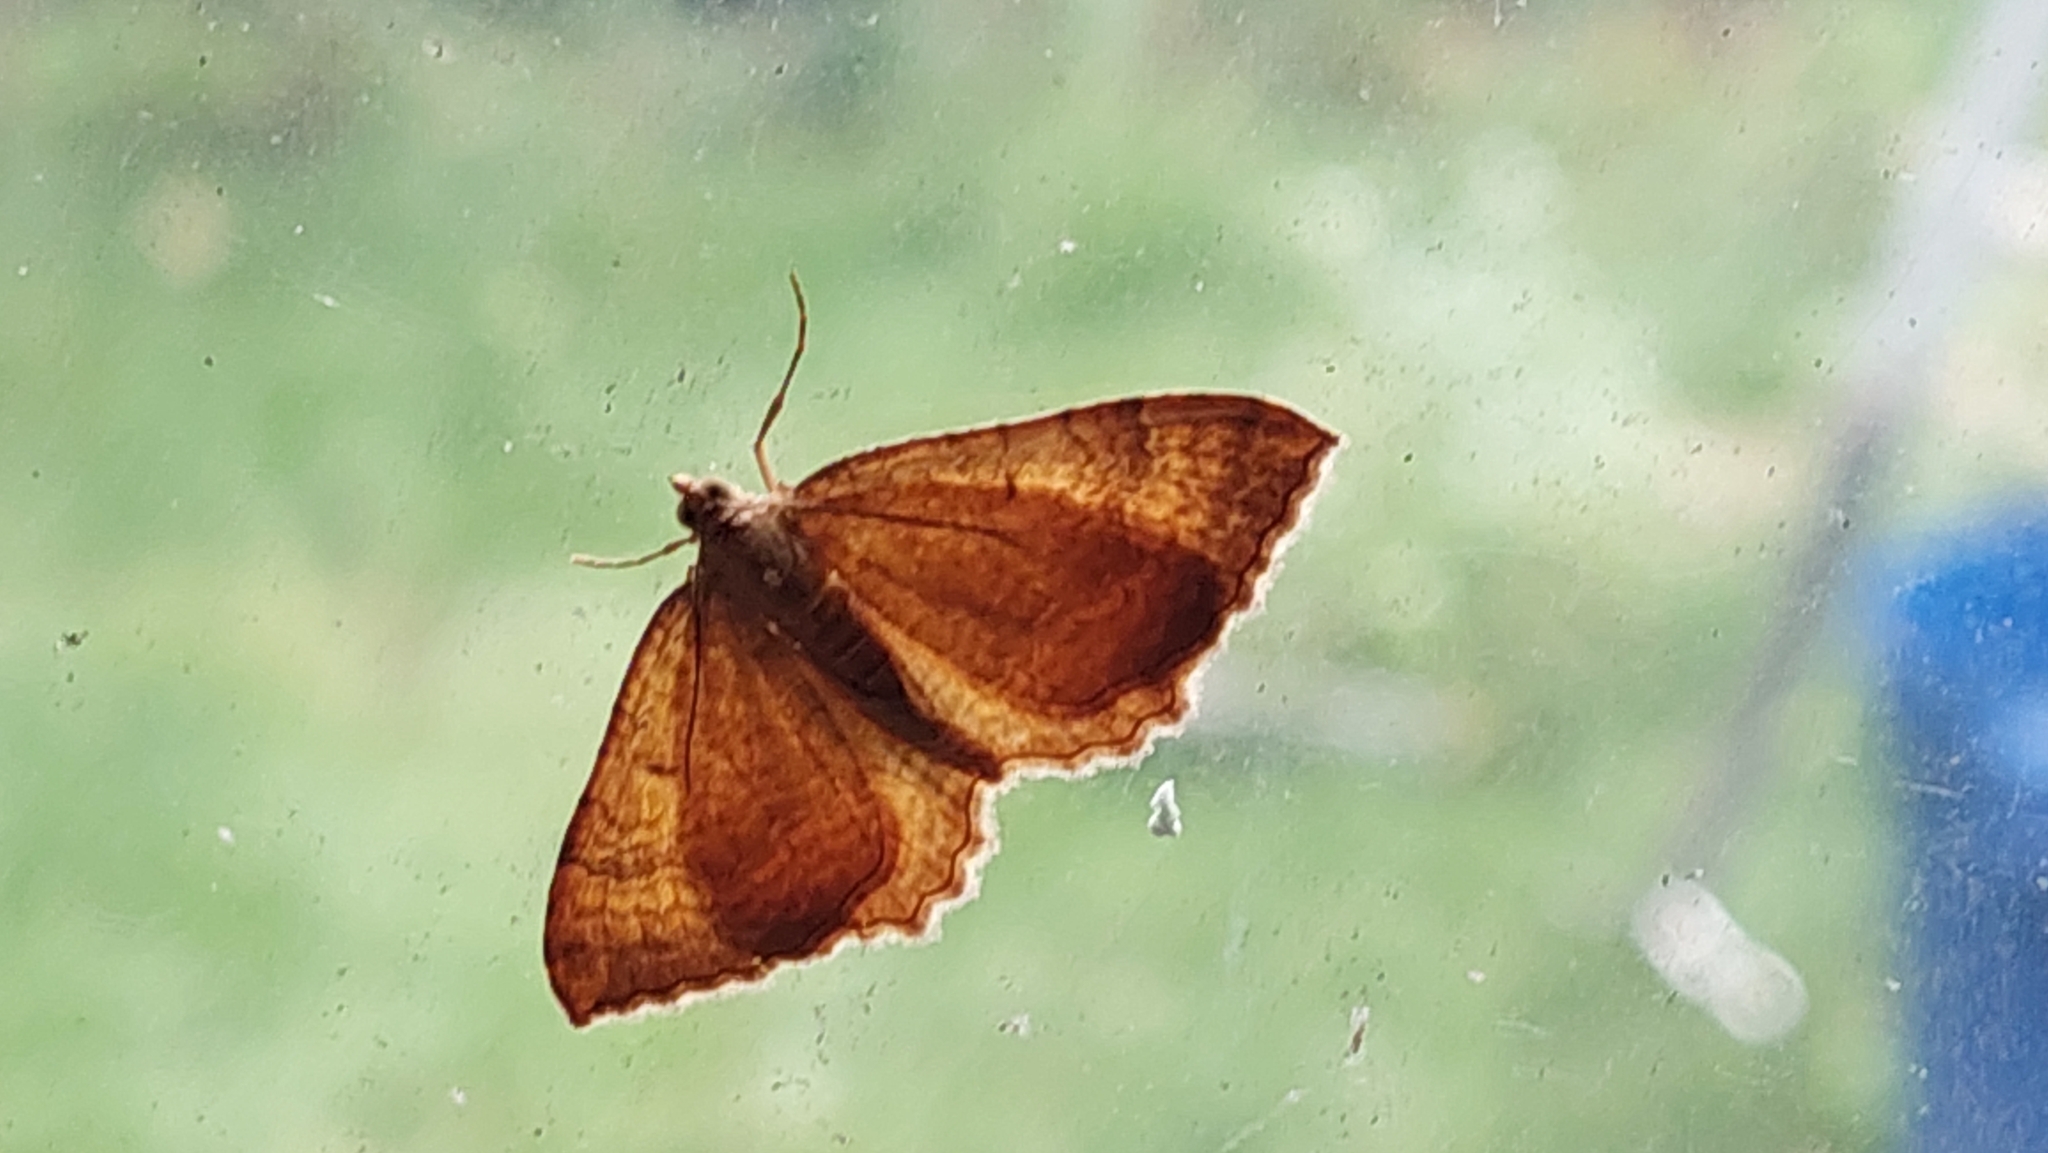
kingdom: Animalia
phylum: Arthropoda
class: Insecta
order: Lepidoptera
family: Geometridae
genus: Camptogramma
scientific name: Camptogramma bilineata
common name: Yellow shell
